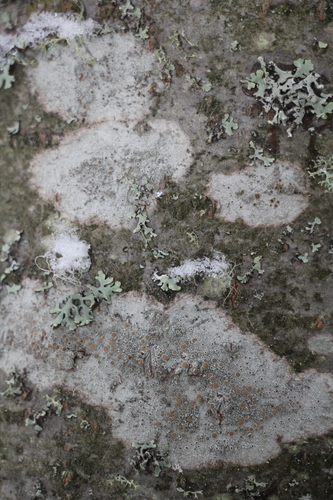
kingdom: Fungi
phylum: Ascomycota
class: Lecanoromycetes
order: Lecanorales
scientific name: Lecanorales
